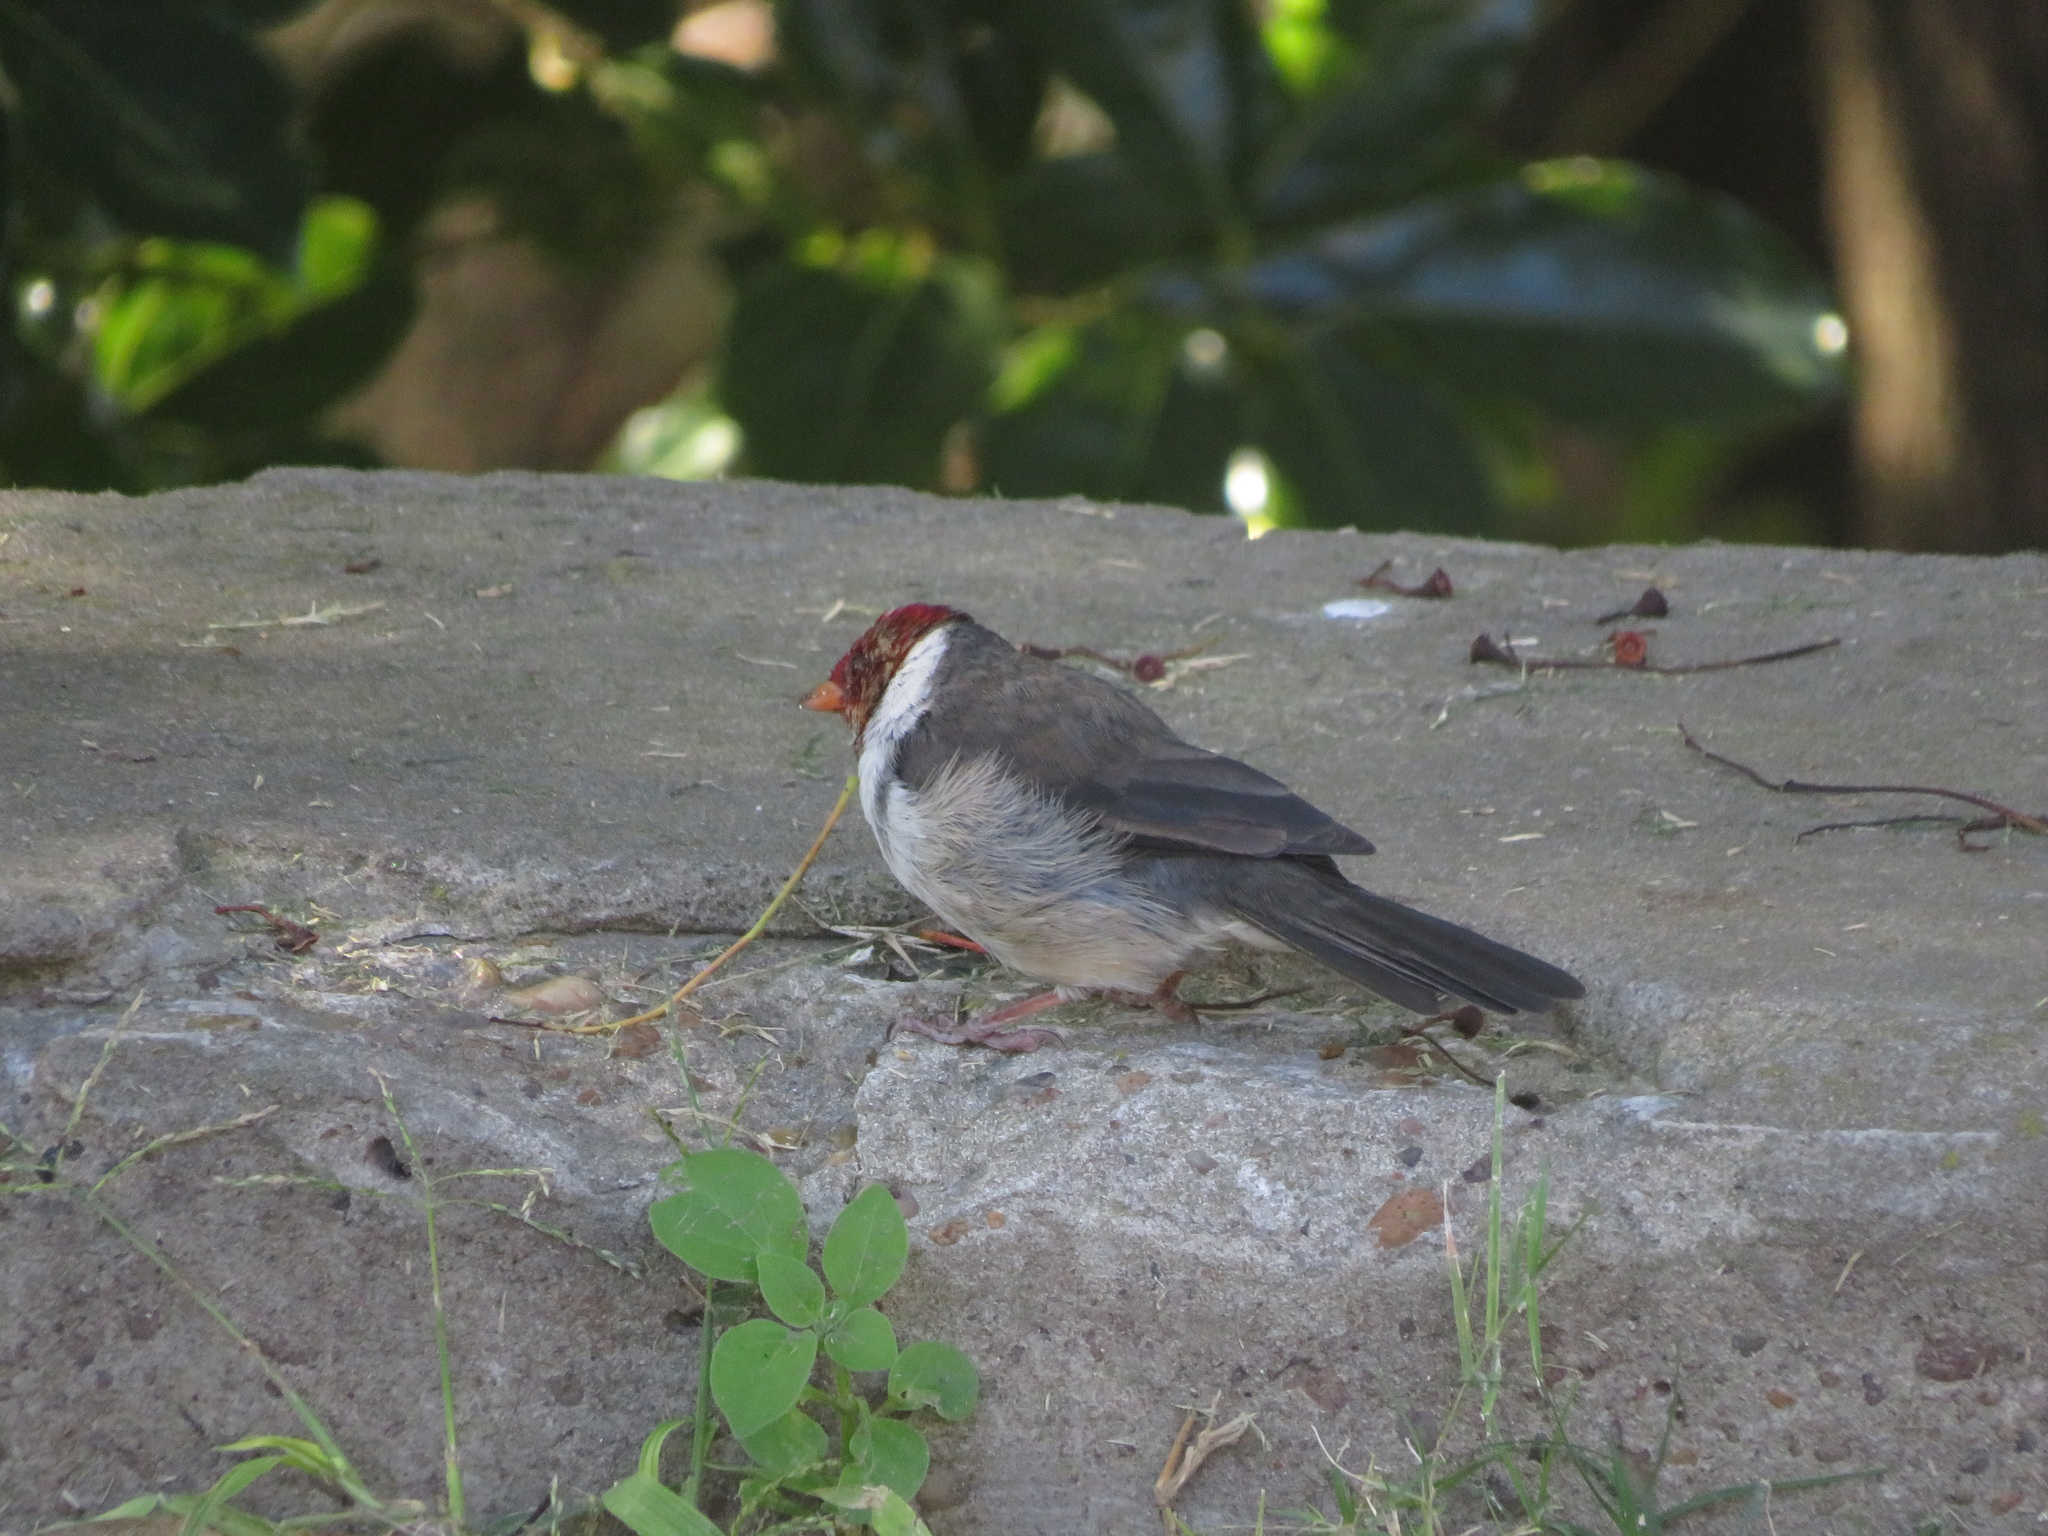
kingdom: Animalia
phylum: Chordata
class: Aves
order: Passeriformes
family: Thraupidae
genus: Paroaria
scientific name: Paroaria capitata
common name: Yellow-billed cardinal
